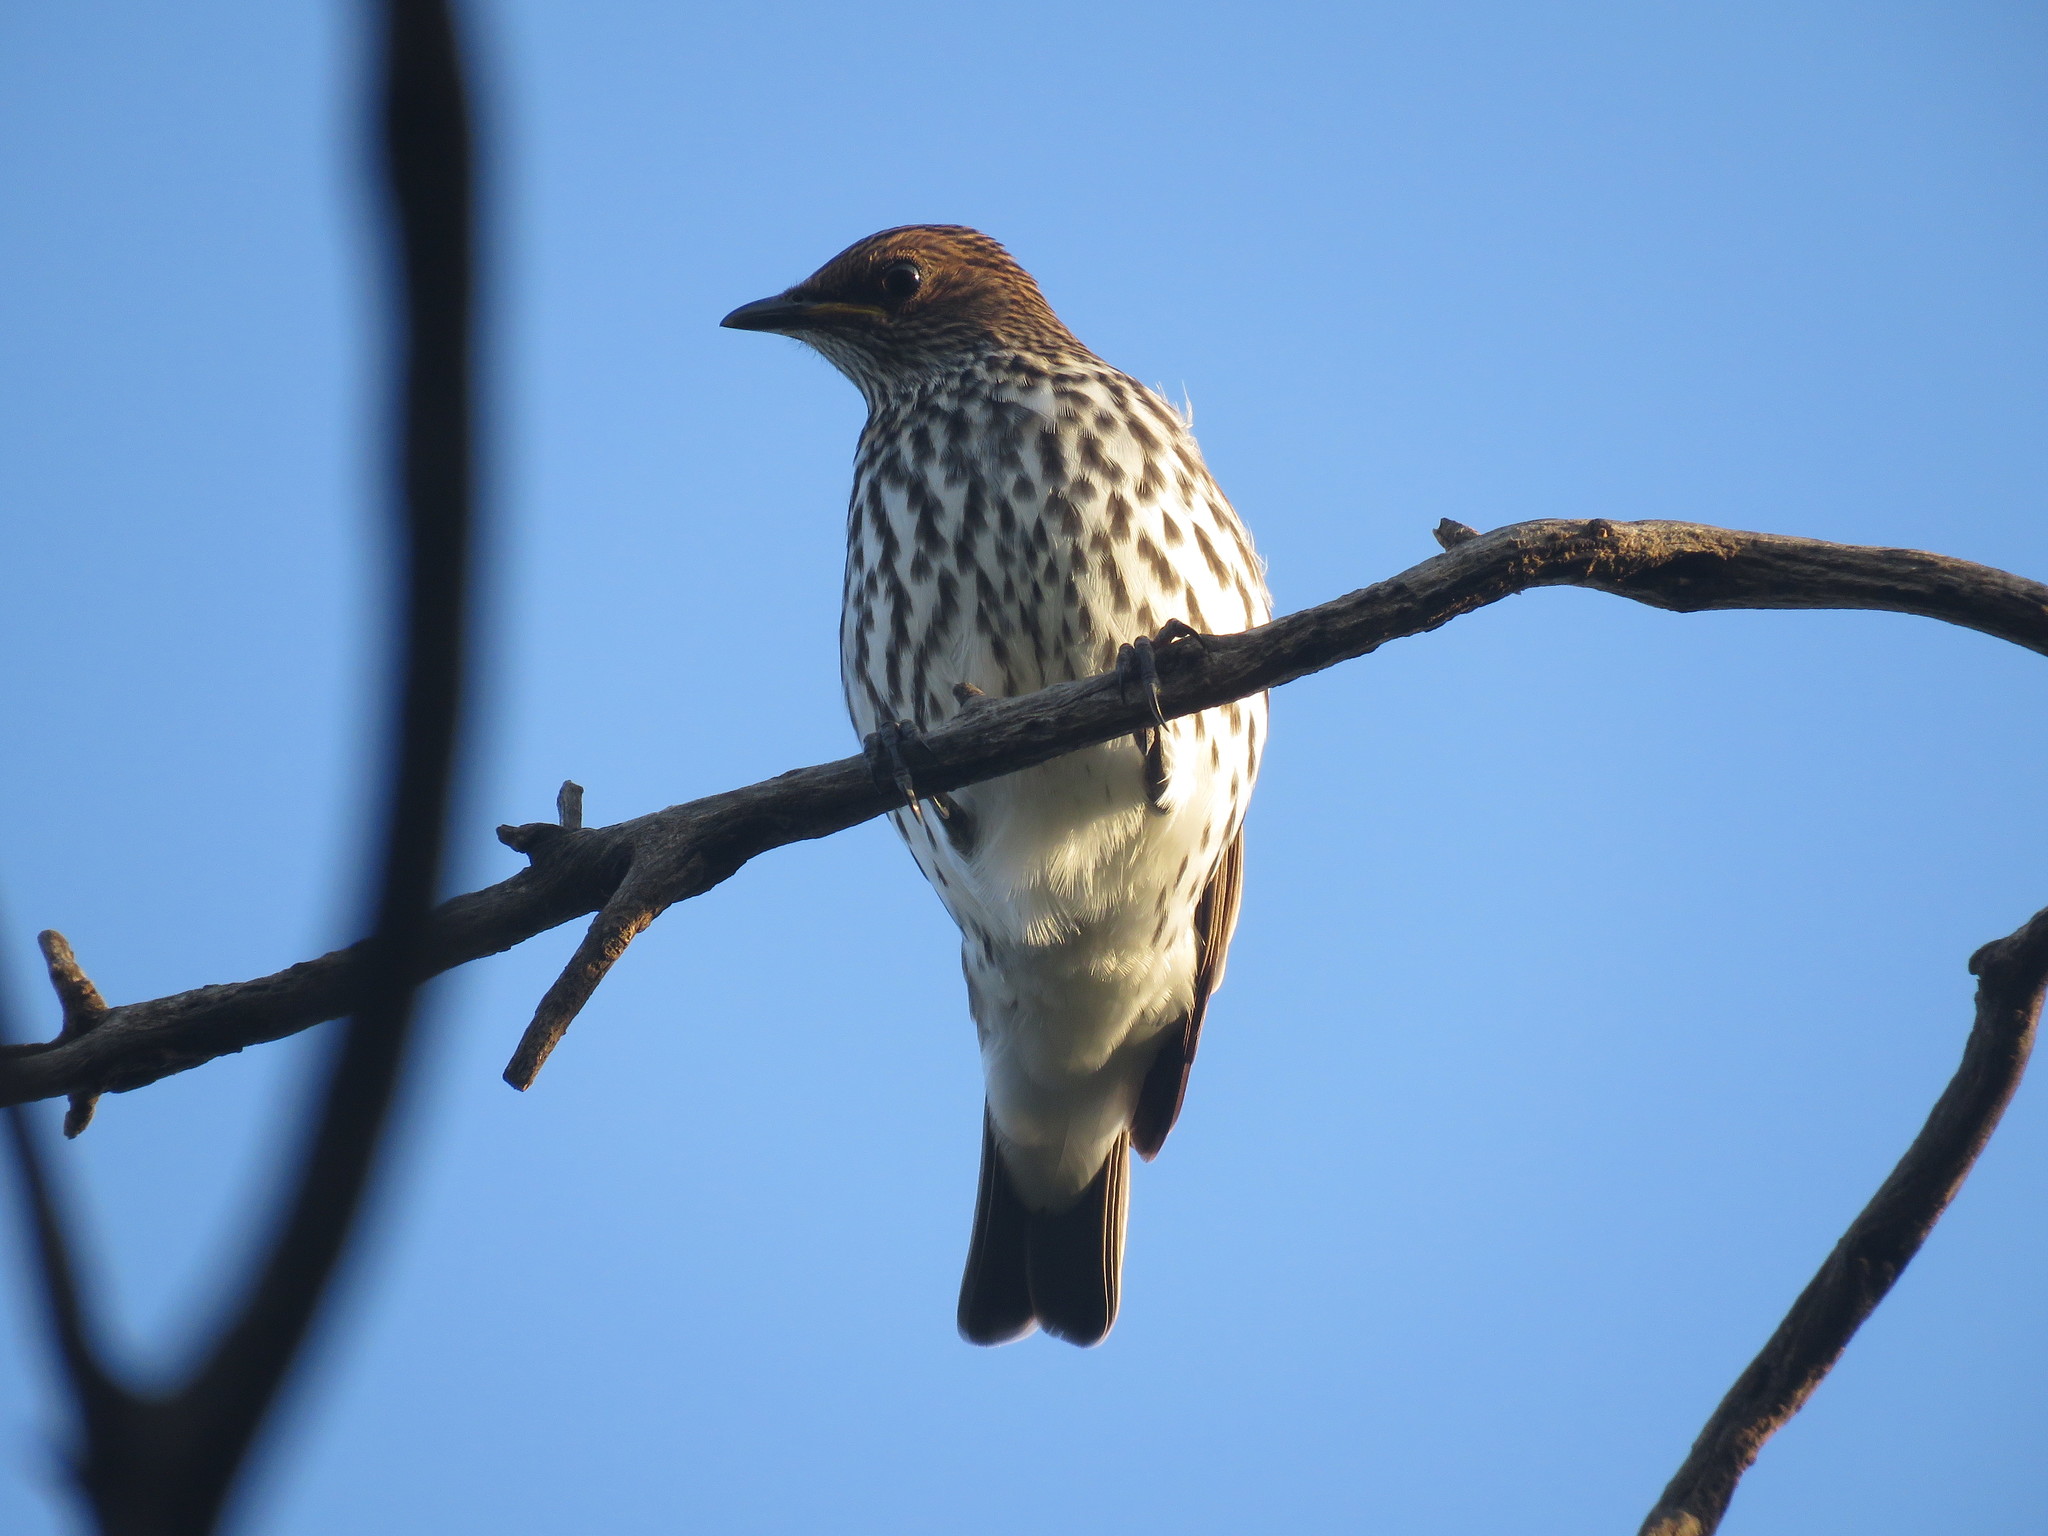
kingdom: Animalia
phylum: Chordata
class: Aves
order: Passeriformes
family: Sturnidae
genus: Cinnyricinclus
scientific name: Cinnyricinclus leucogaster
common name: Violet-backed starling
